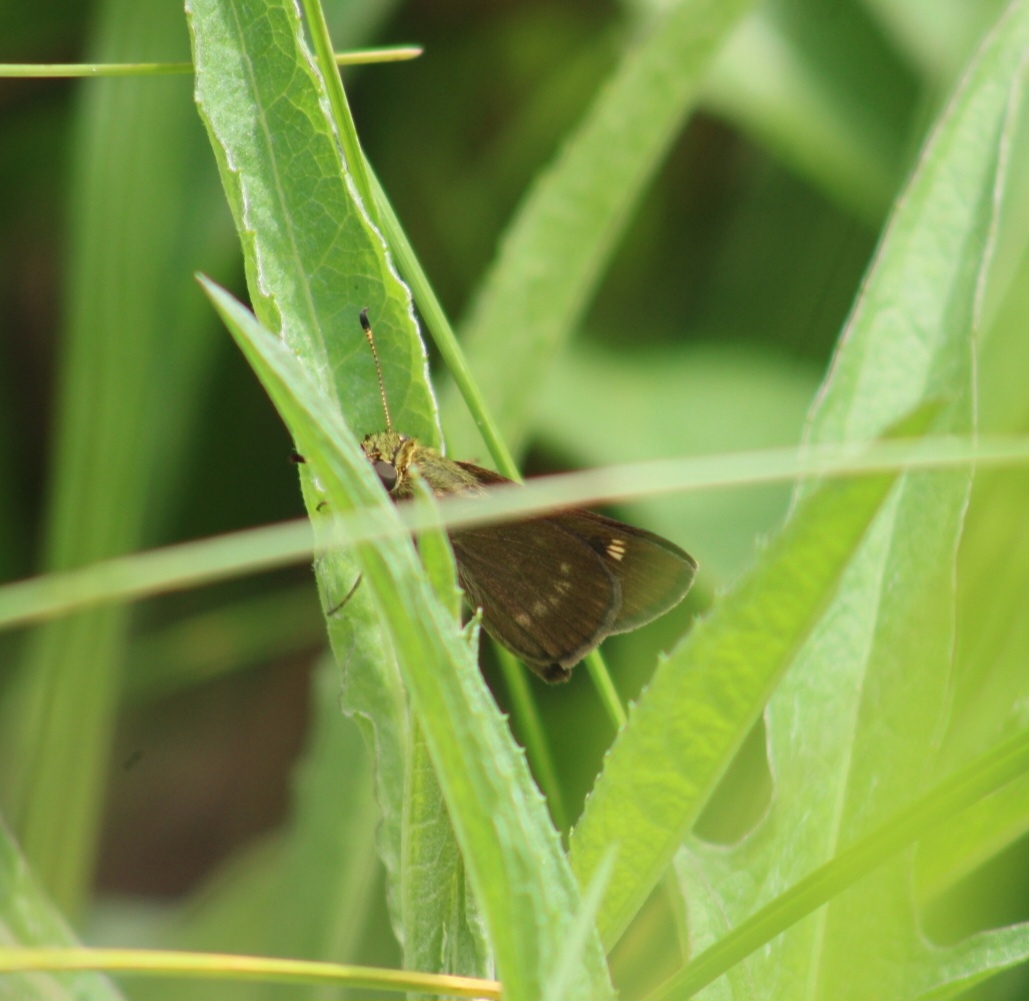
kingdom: Animalia
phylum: Arthropoda
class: Insecta
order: Lepidoptera
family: Hesperiidae
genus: Vernia
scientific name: Vernia verna
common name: Little glassywing
